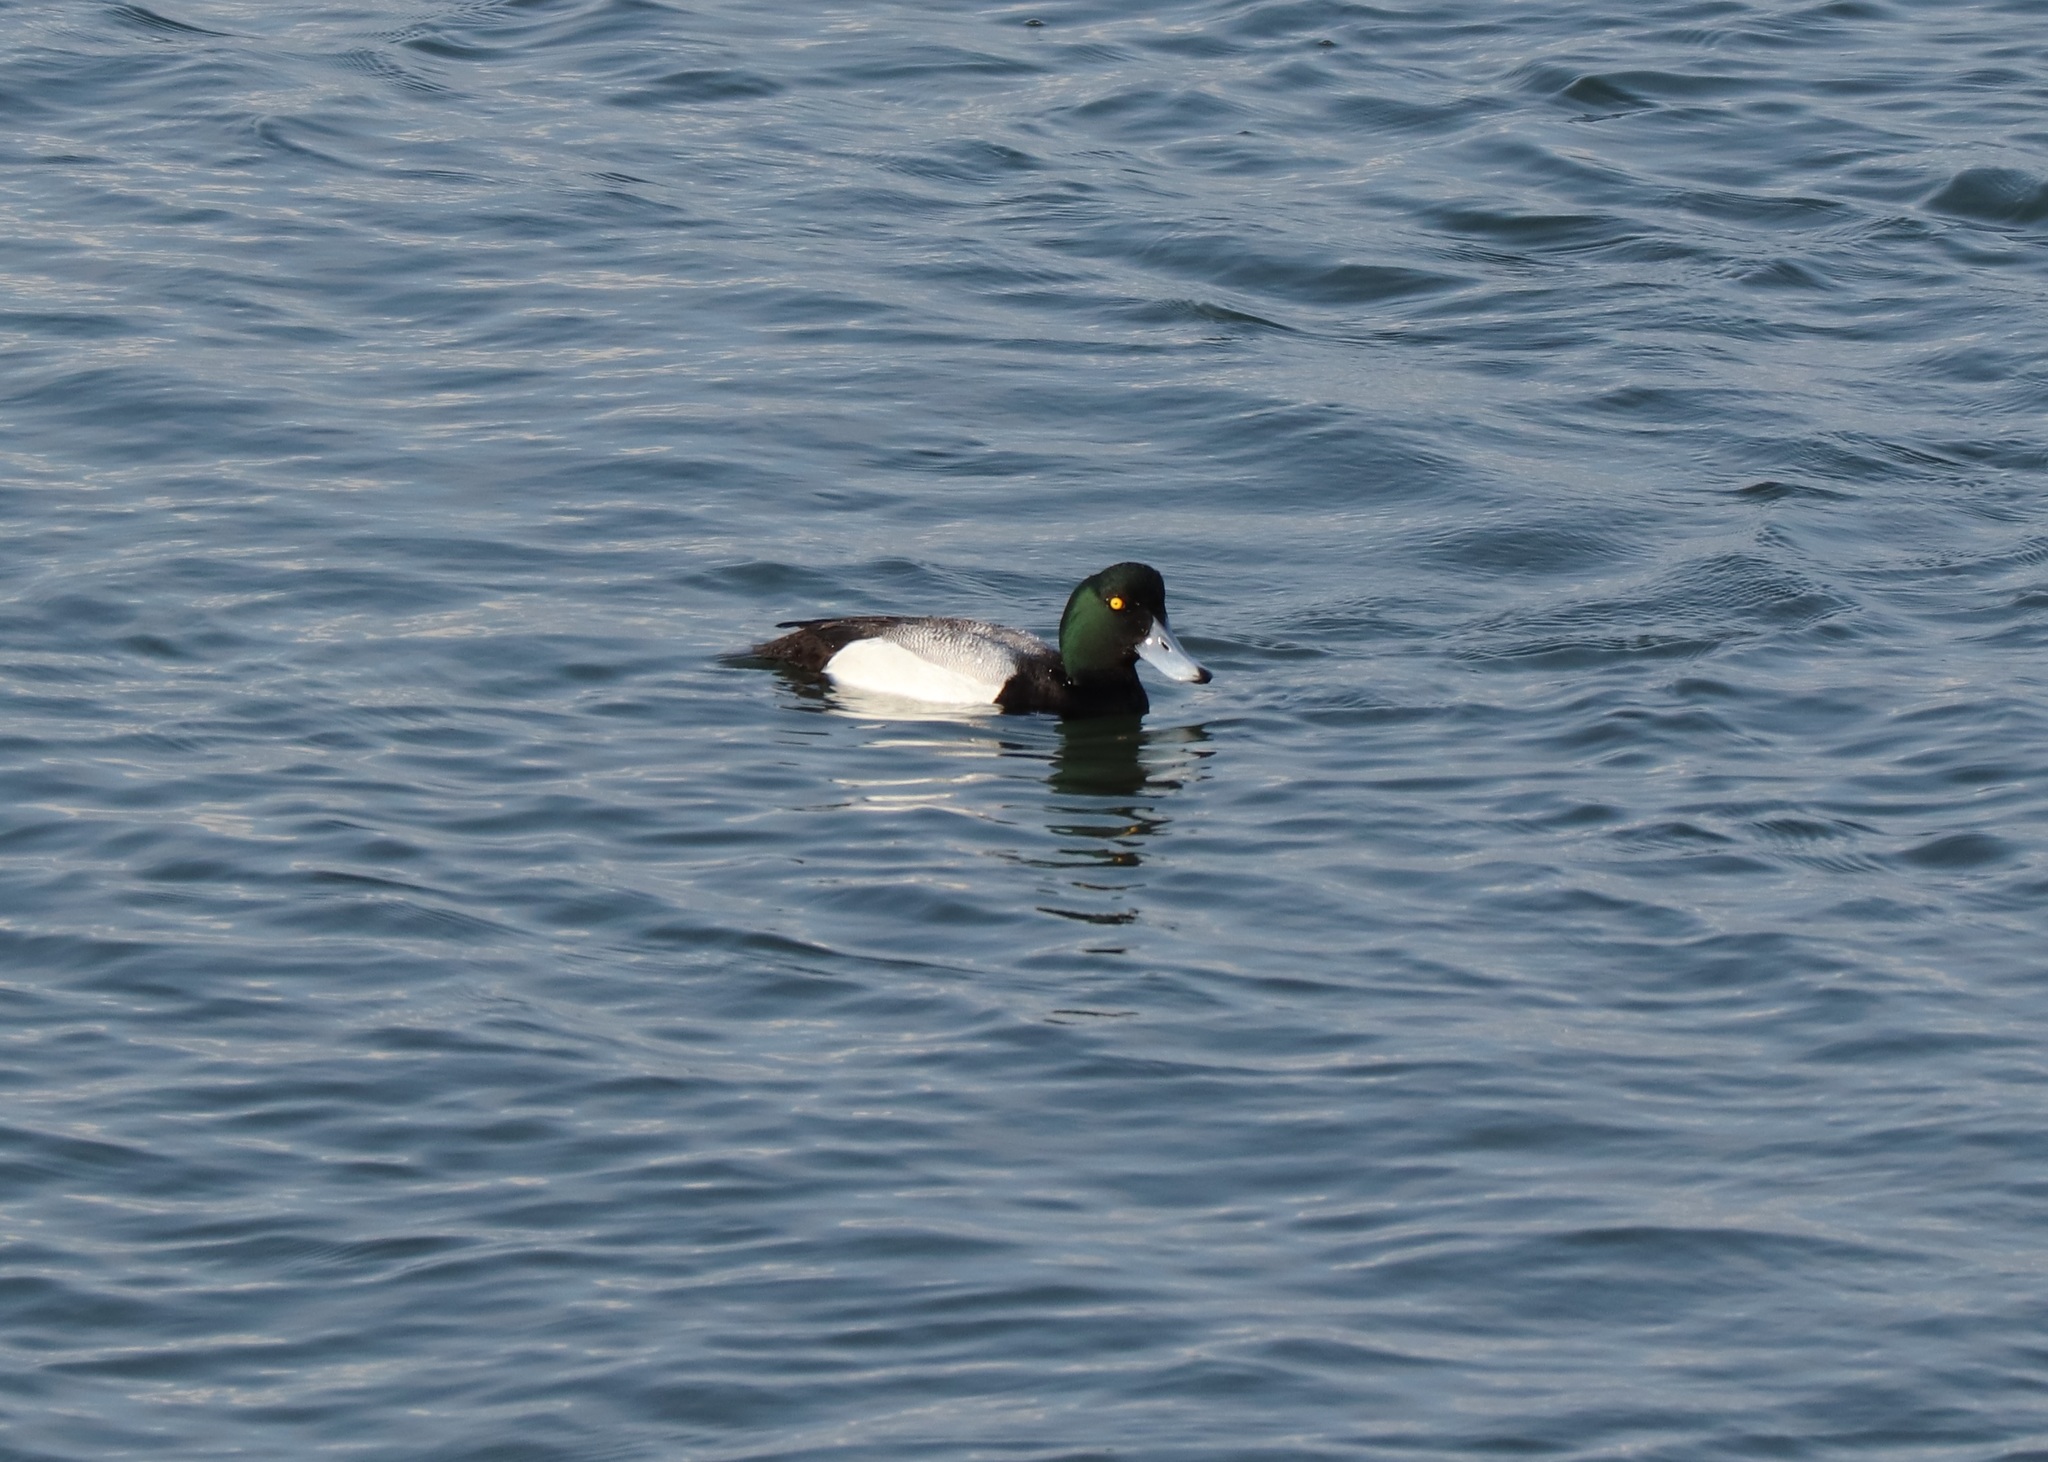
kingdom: Animalia
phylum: Chordata
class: Aves
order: Anseriformes
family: Anatidae
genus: Aythya
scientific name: Aythya marila
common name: Greater scaup
